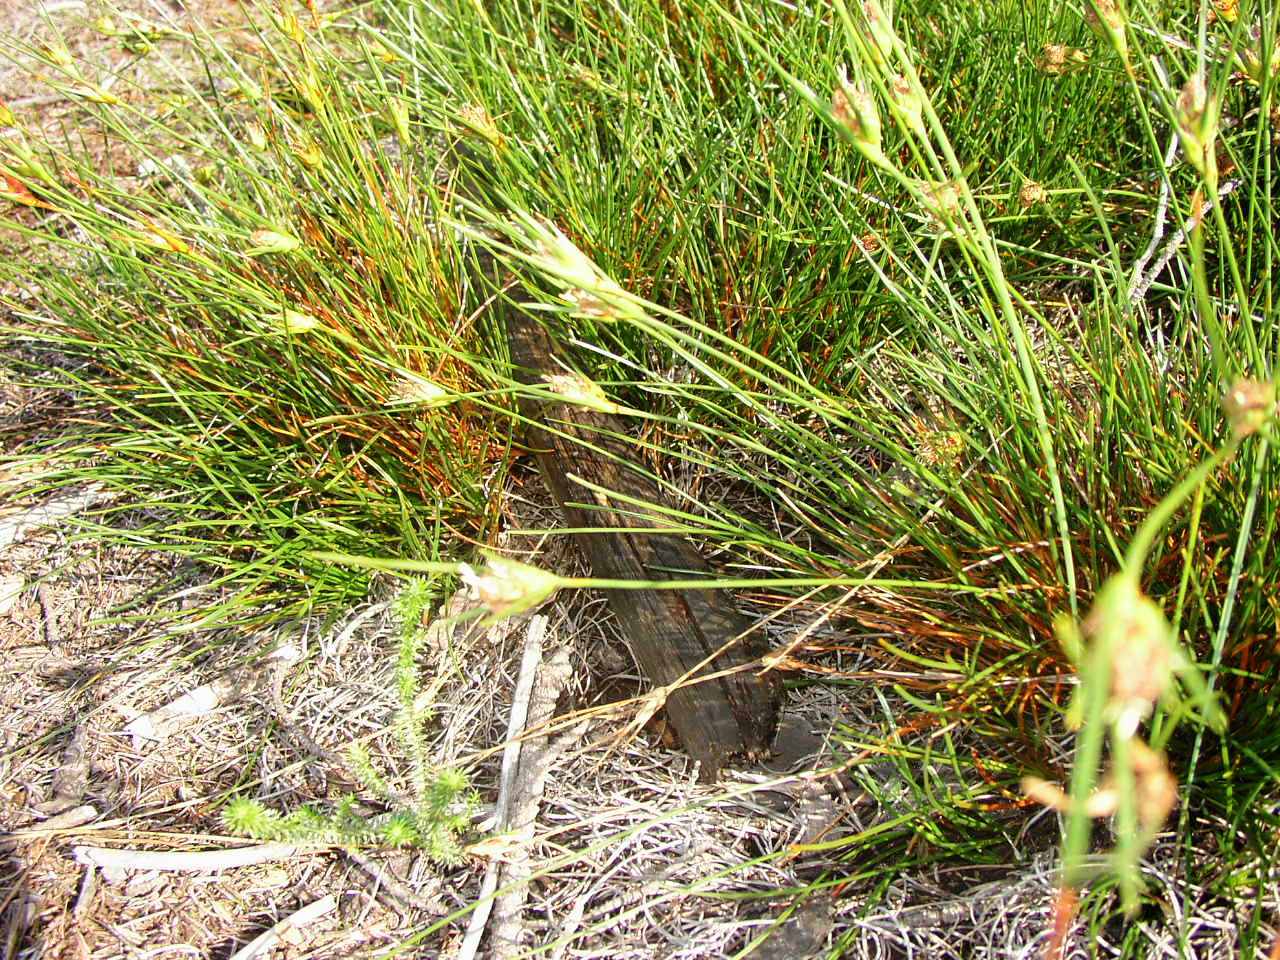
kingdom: Plantae
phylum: Tracheophyta
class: Liliopsida
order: Poales
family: Cyperaceae
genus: Ficinia
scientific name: Ficinia anceps
